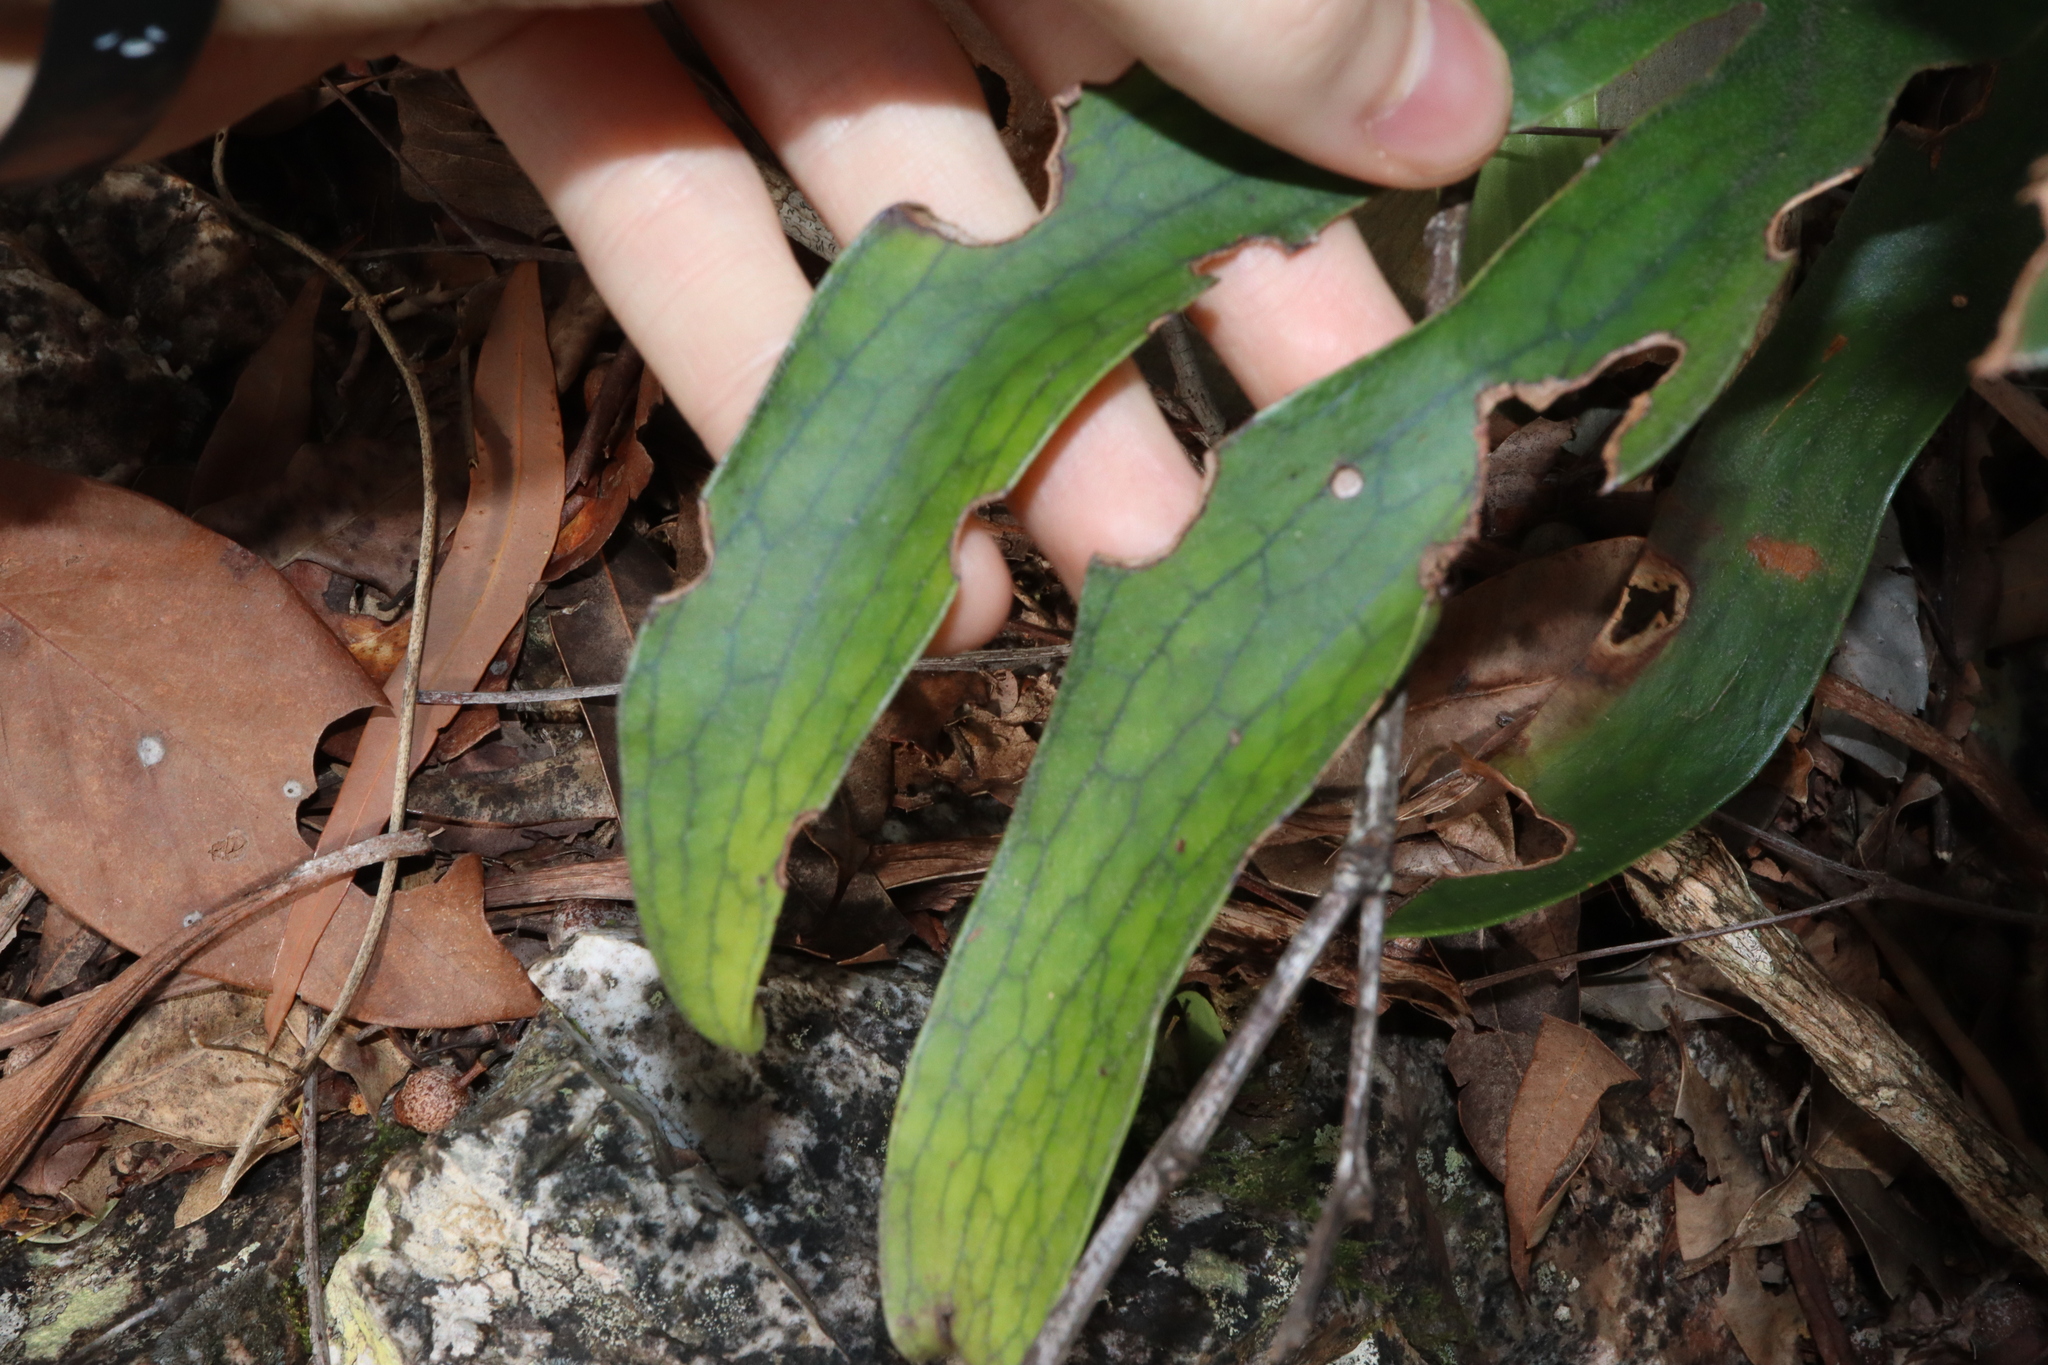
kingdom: Plantae
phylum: Tracheophyta
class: Polypodiopsida
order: Polypodiales
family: Polypodiaceae
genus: Platycerium
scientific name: Platycerium hillii
